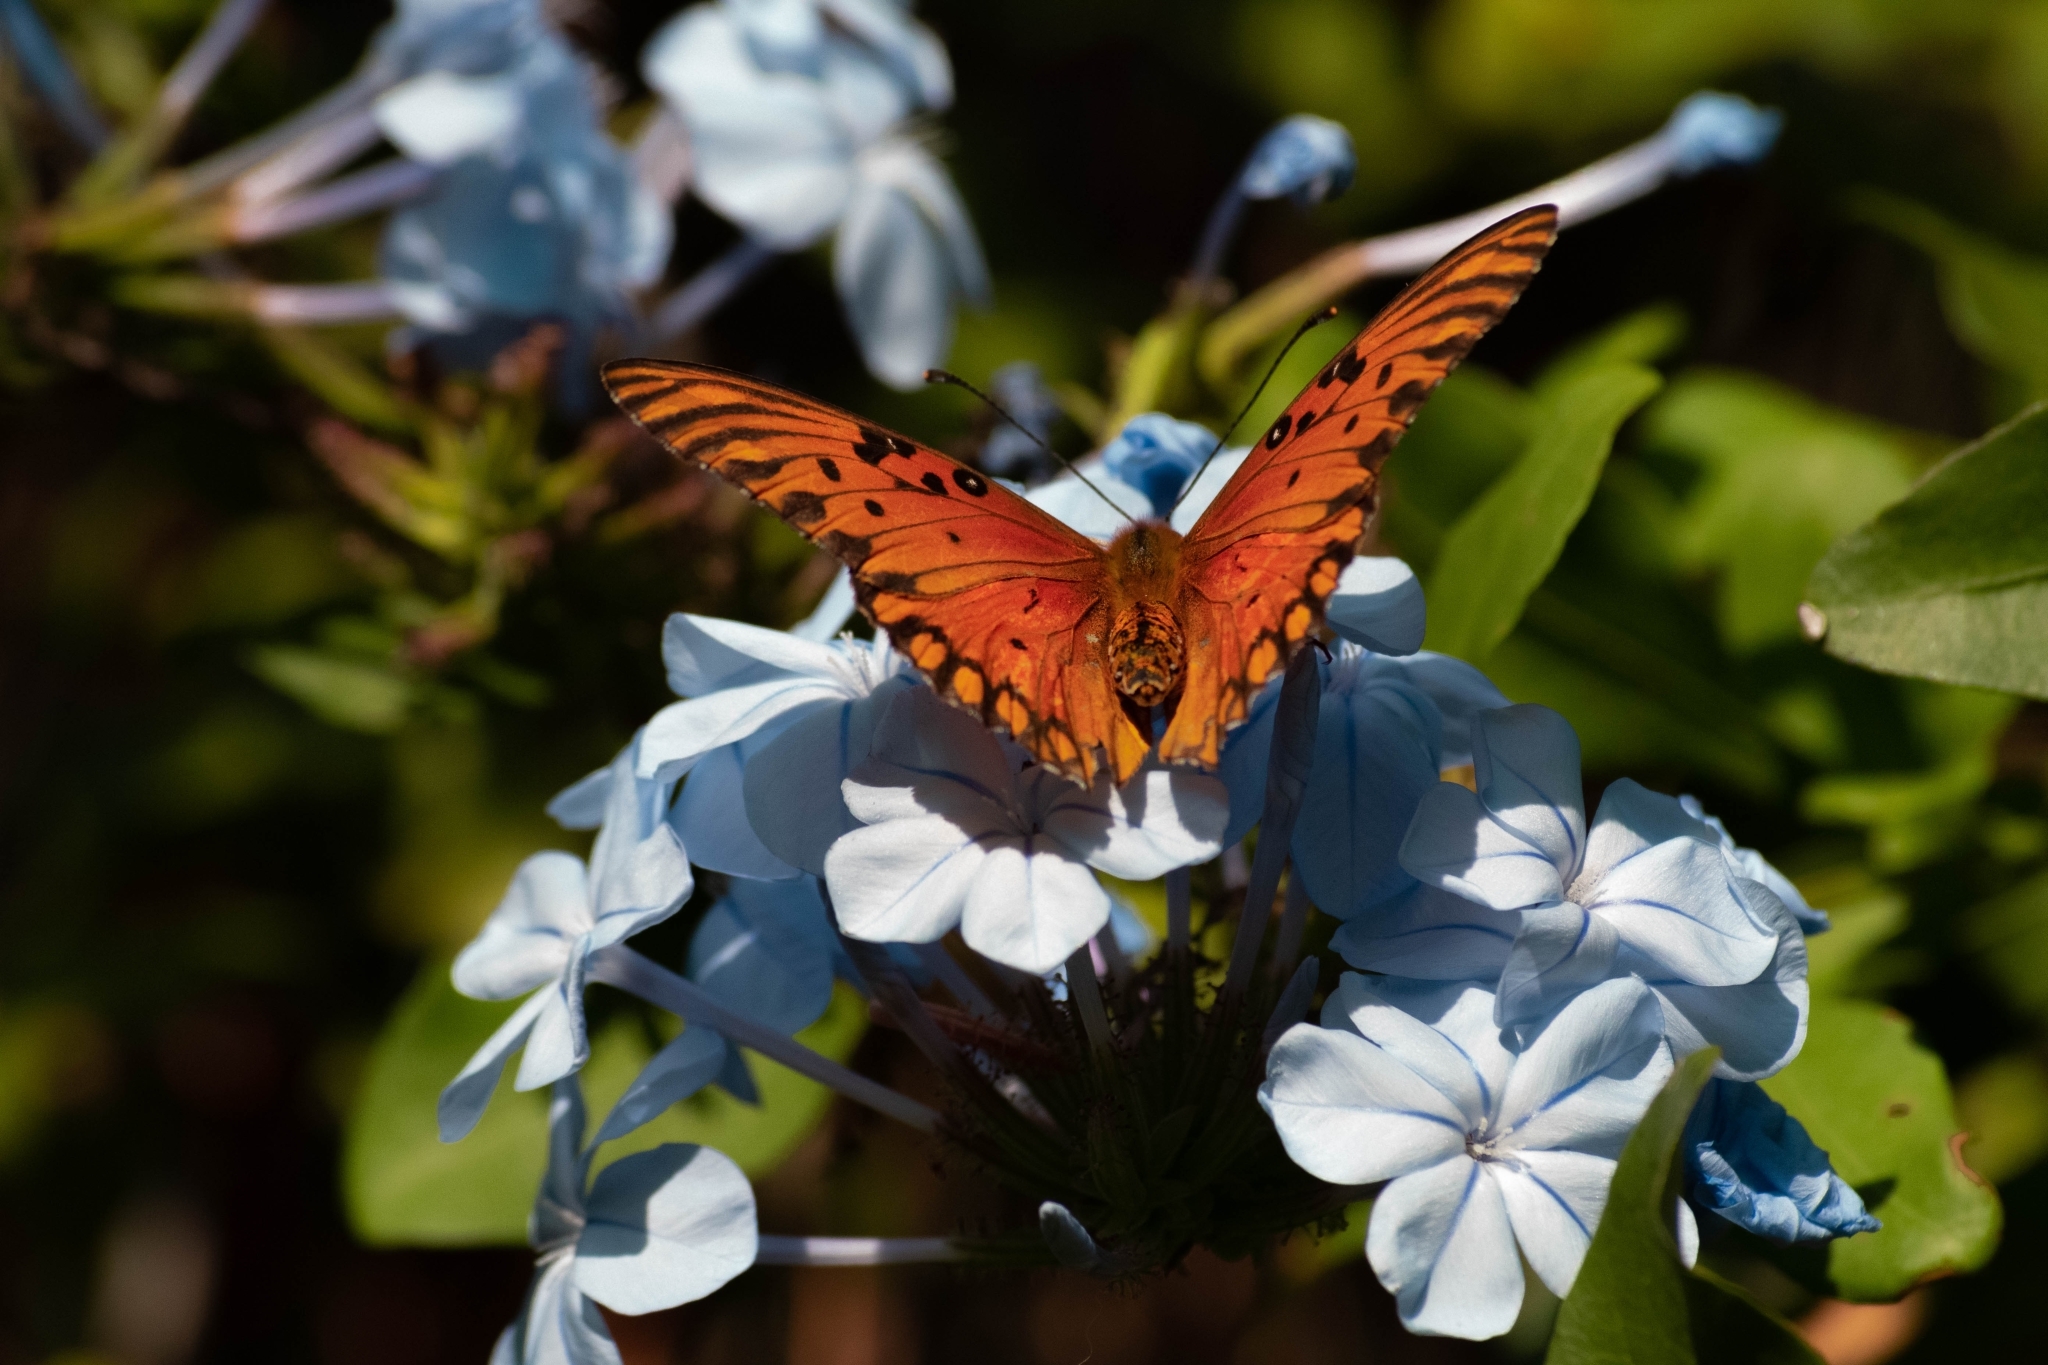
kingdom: Animalia
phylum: Arthropoda
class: Insecta
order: Lepidoptera
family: Nymphalidae
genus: Dione
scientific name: Dione vanillae
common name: Gulf fritillary
